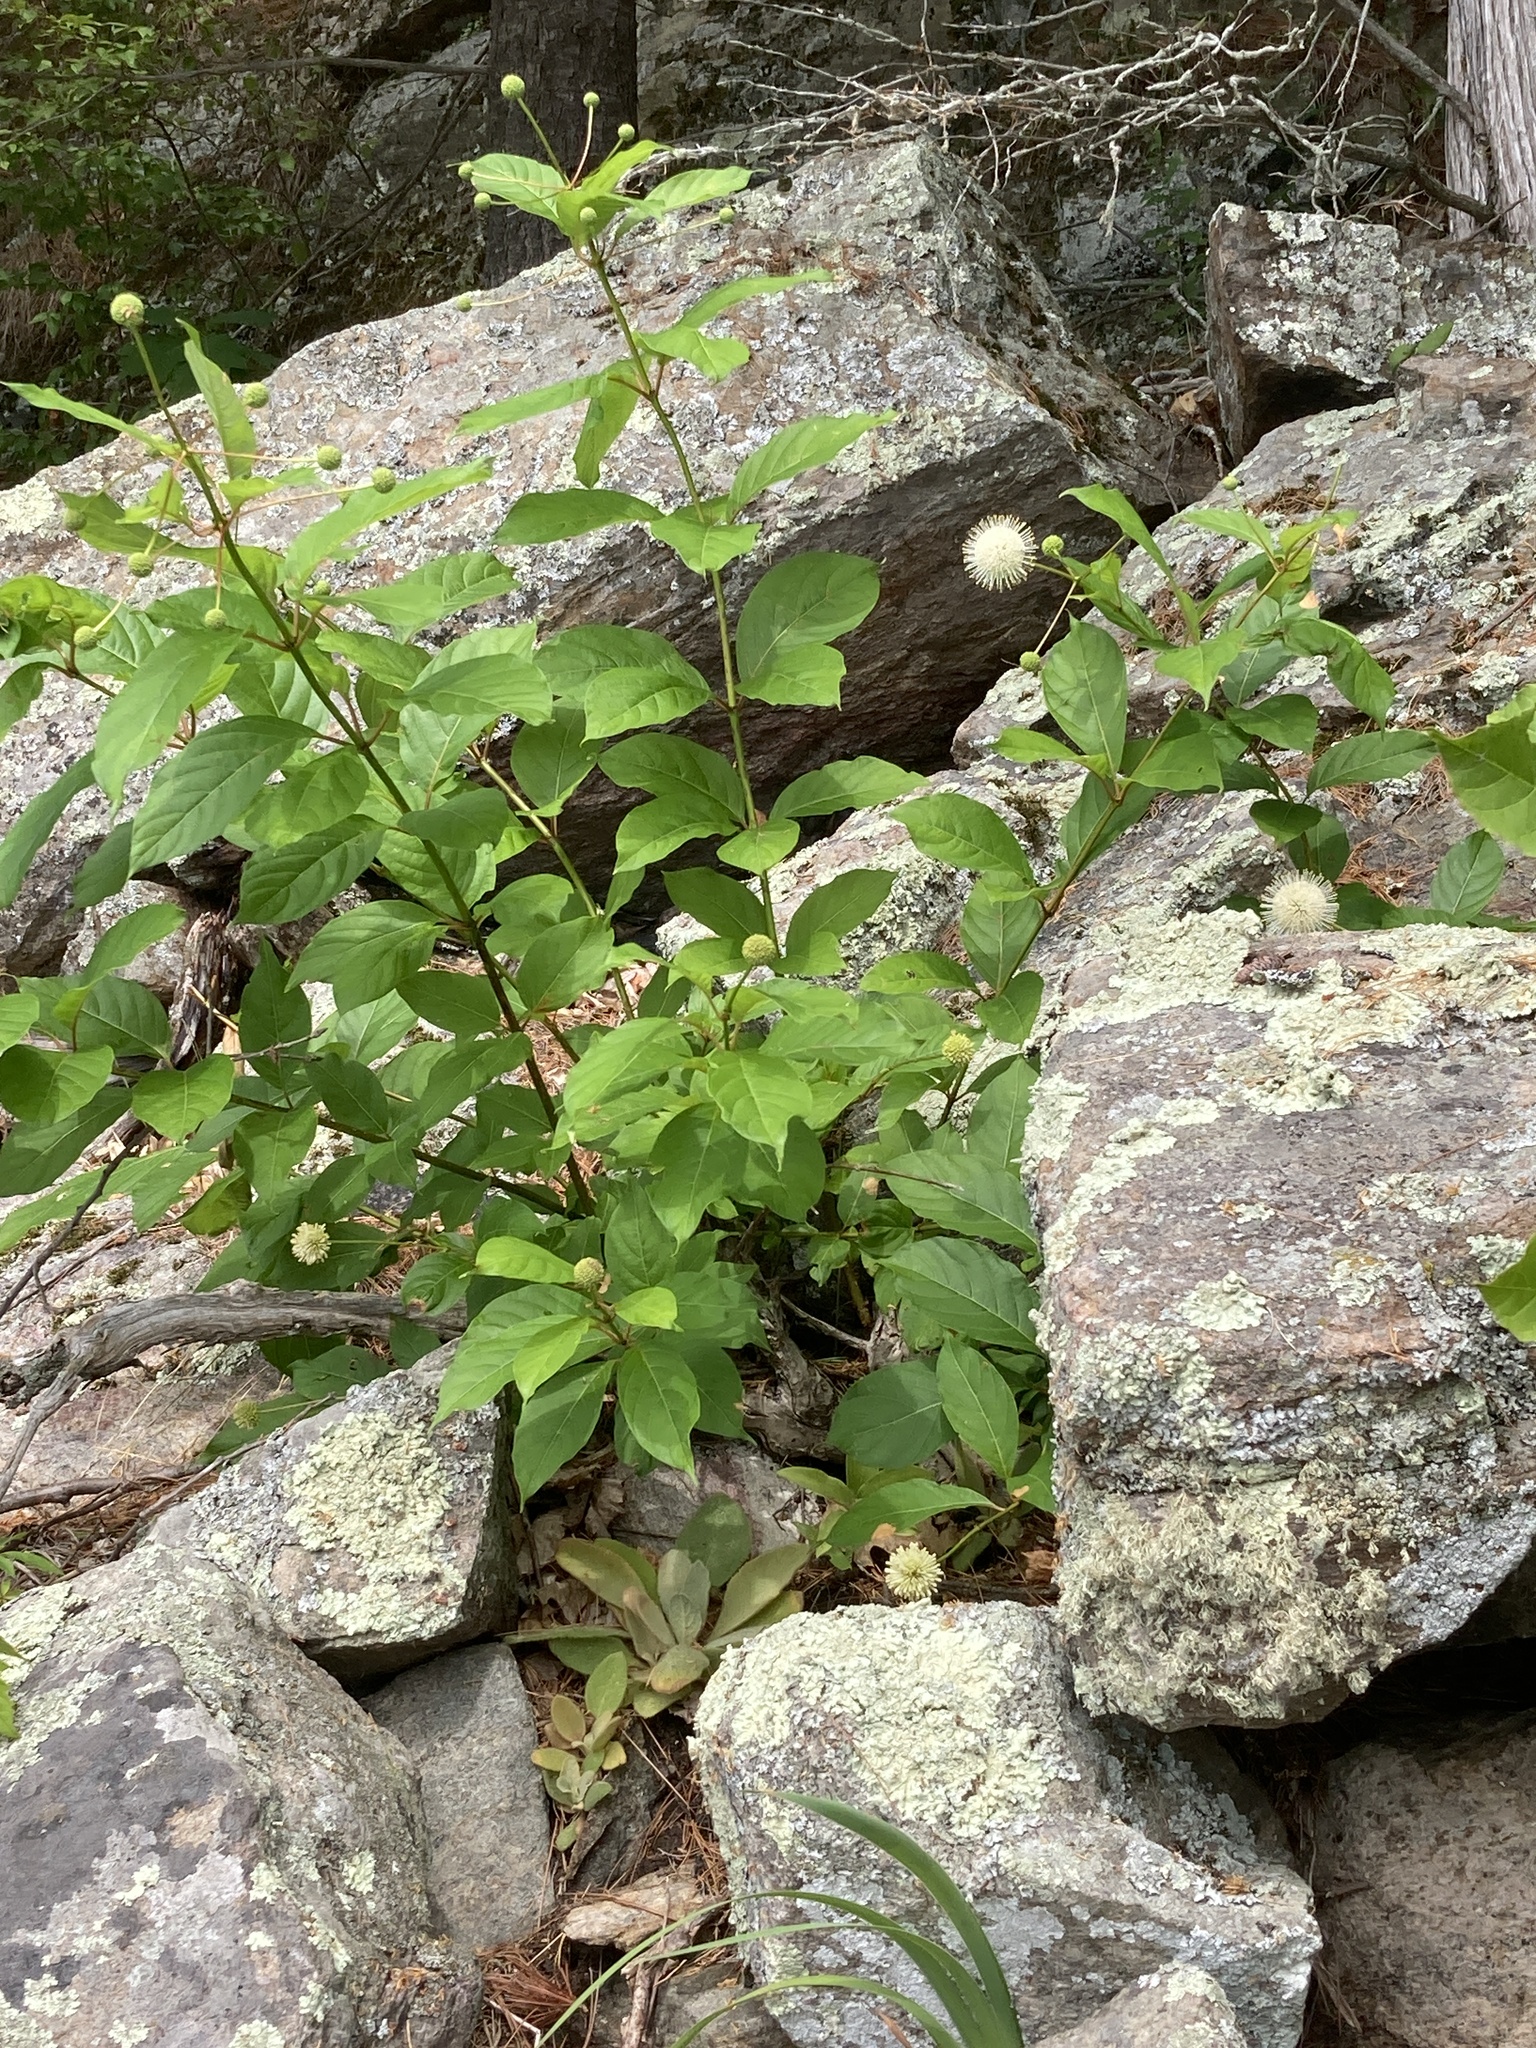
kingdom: Plantae
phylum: Tracheophyta
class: Magnoliopsida
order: Gentianales
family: Rubiaceae
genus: Cephalanthus
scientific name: Cephalanthus occidentalis
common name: Button-willow
